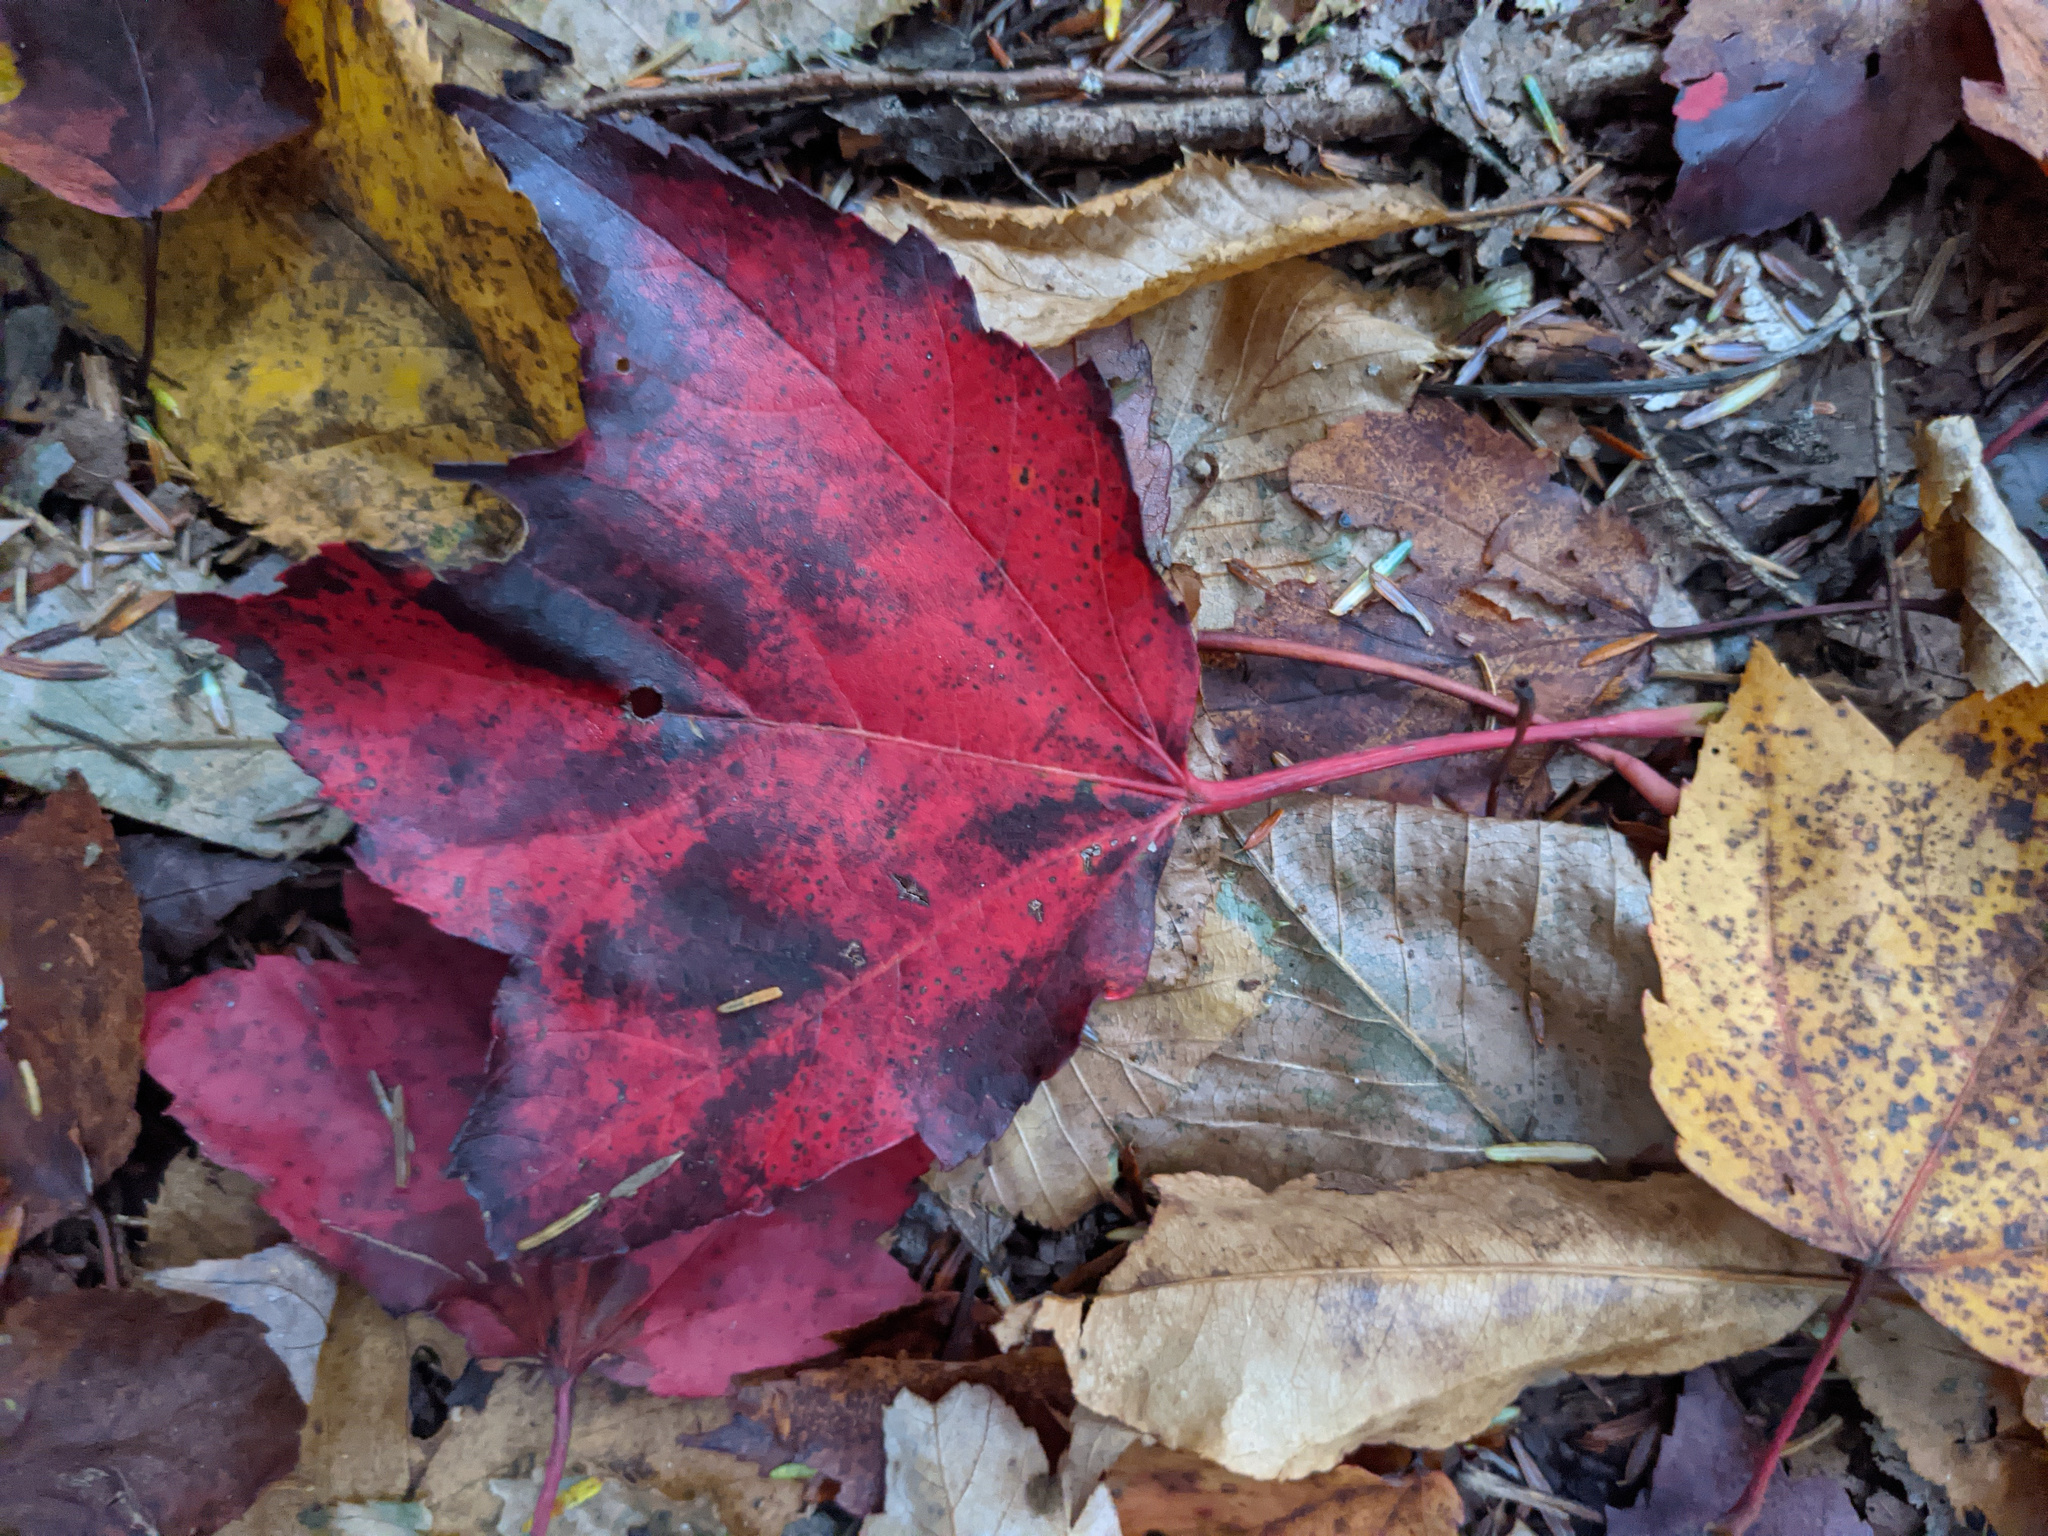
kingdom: Plantae
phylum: Tracheophyta
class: Magnoliopsida
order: Sapindales
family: Sapindaceae
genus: Acer
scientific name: Acer rubrum
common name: Red maple
